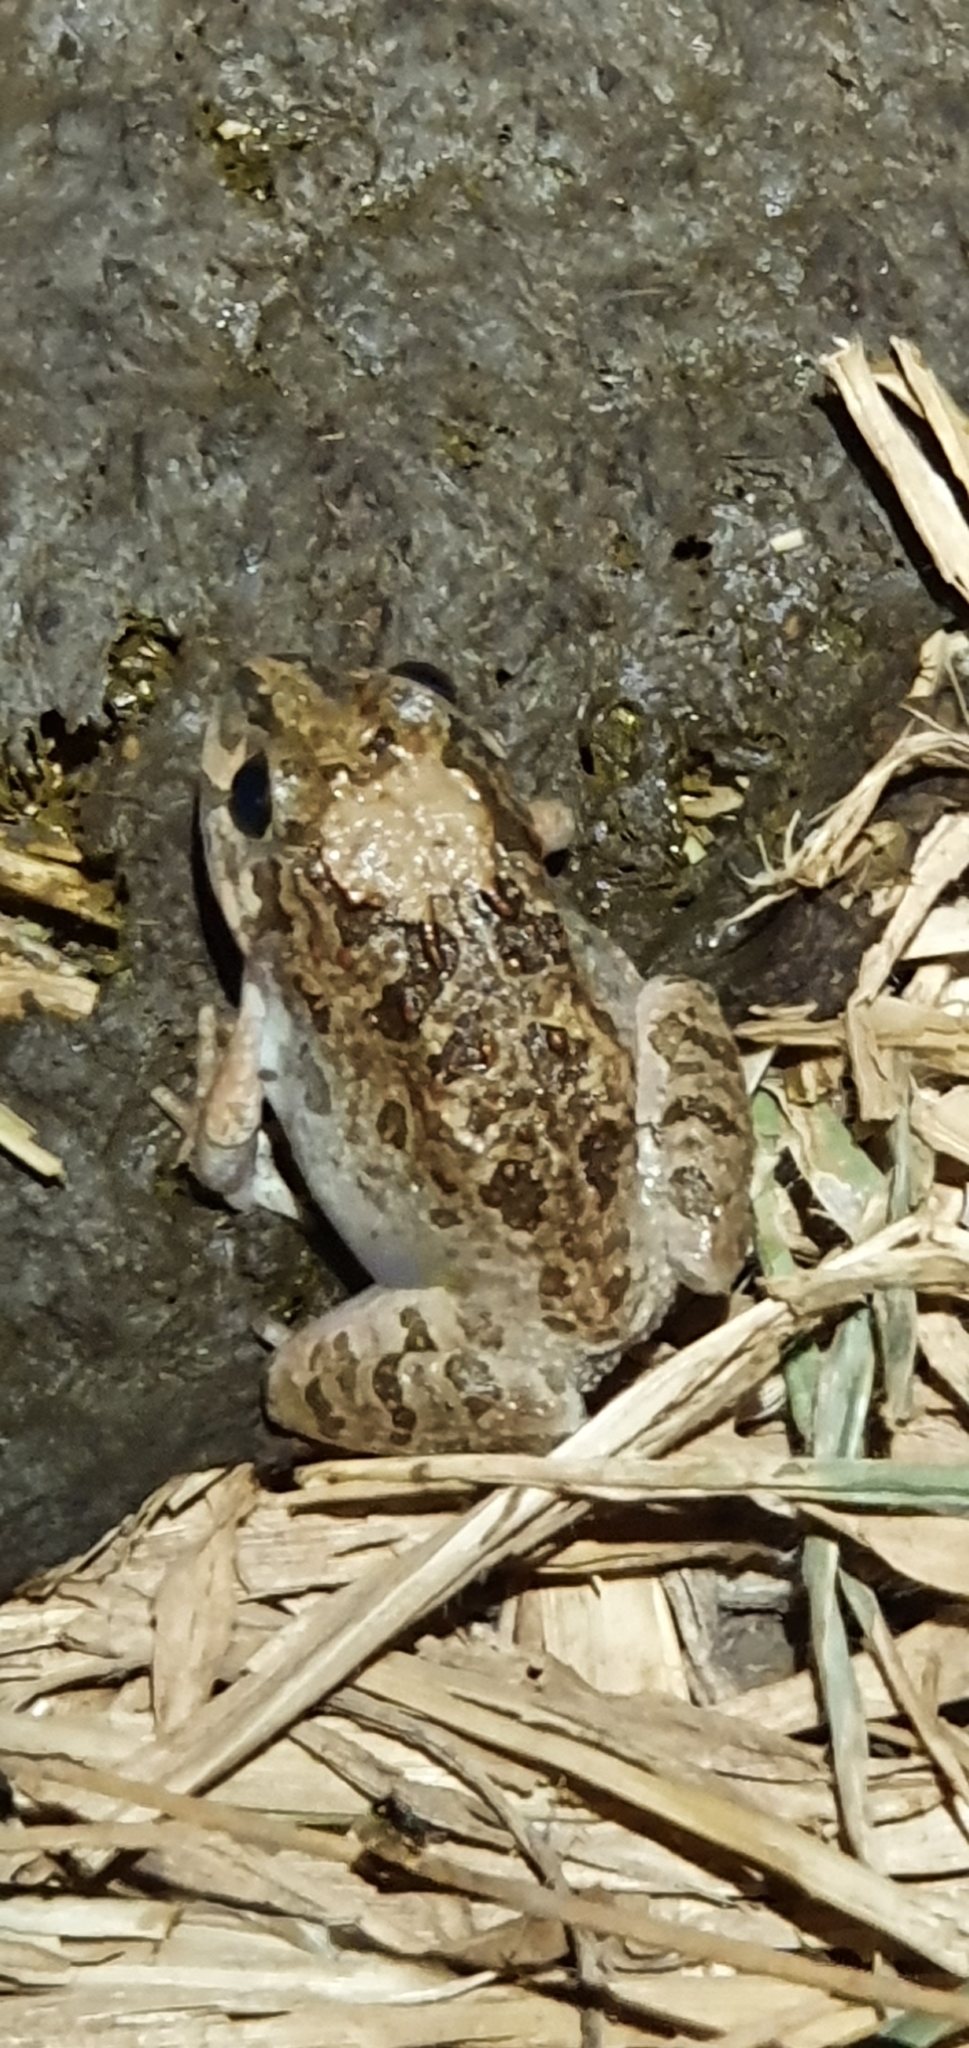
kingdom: Animalia
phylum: Chordata
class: Amphibia
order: Anura
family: Limnodynastidae
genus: Platyplectrum
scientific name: Platyplectrum ornatum
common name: Ornate burrowing frog
